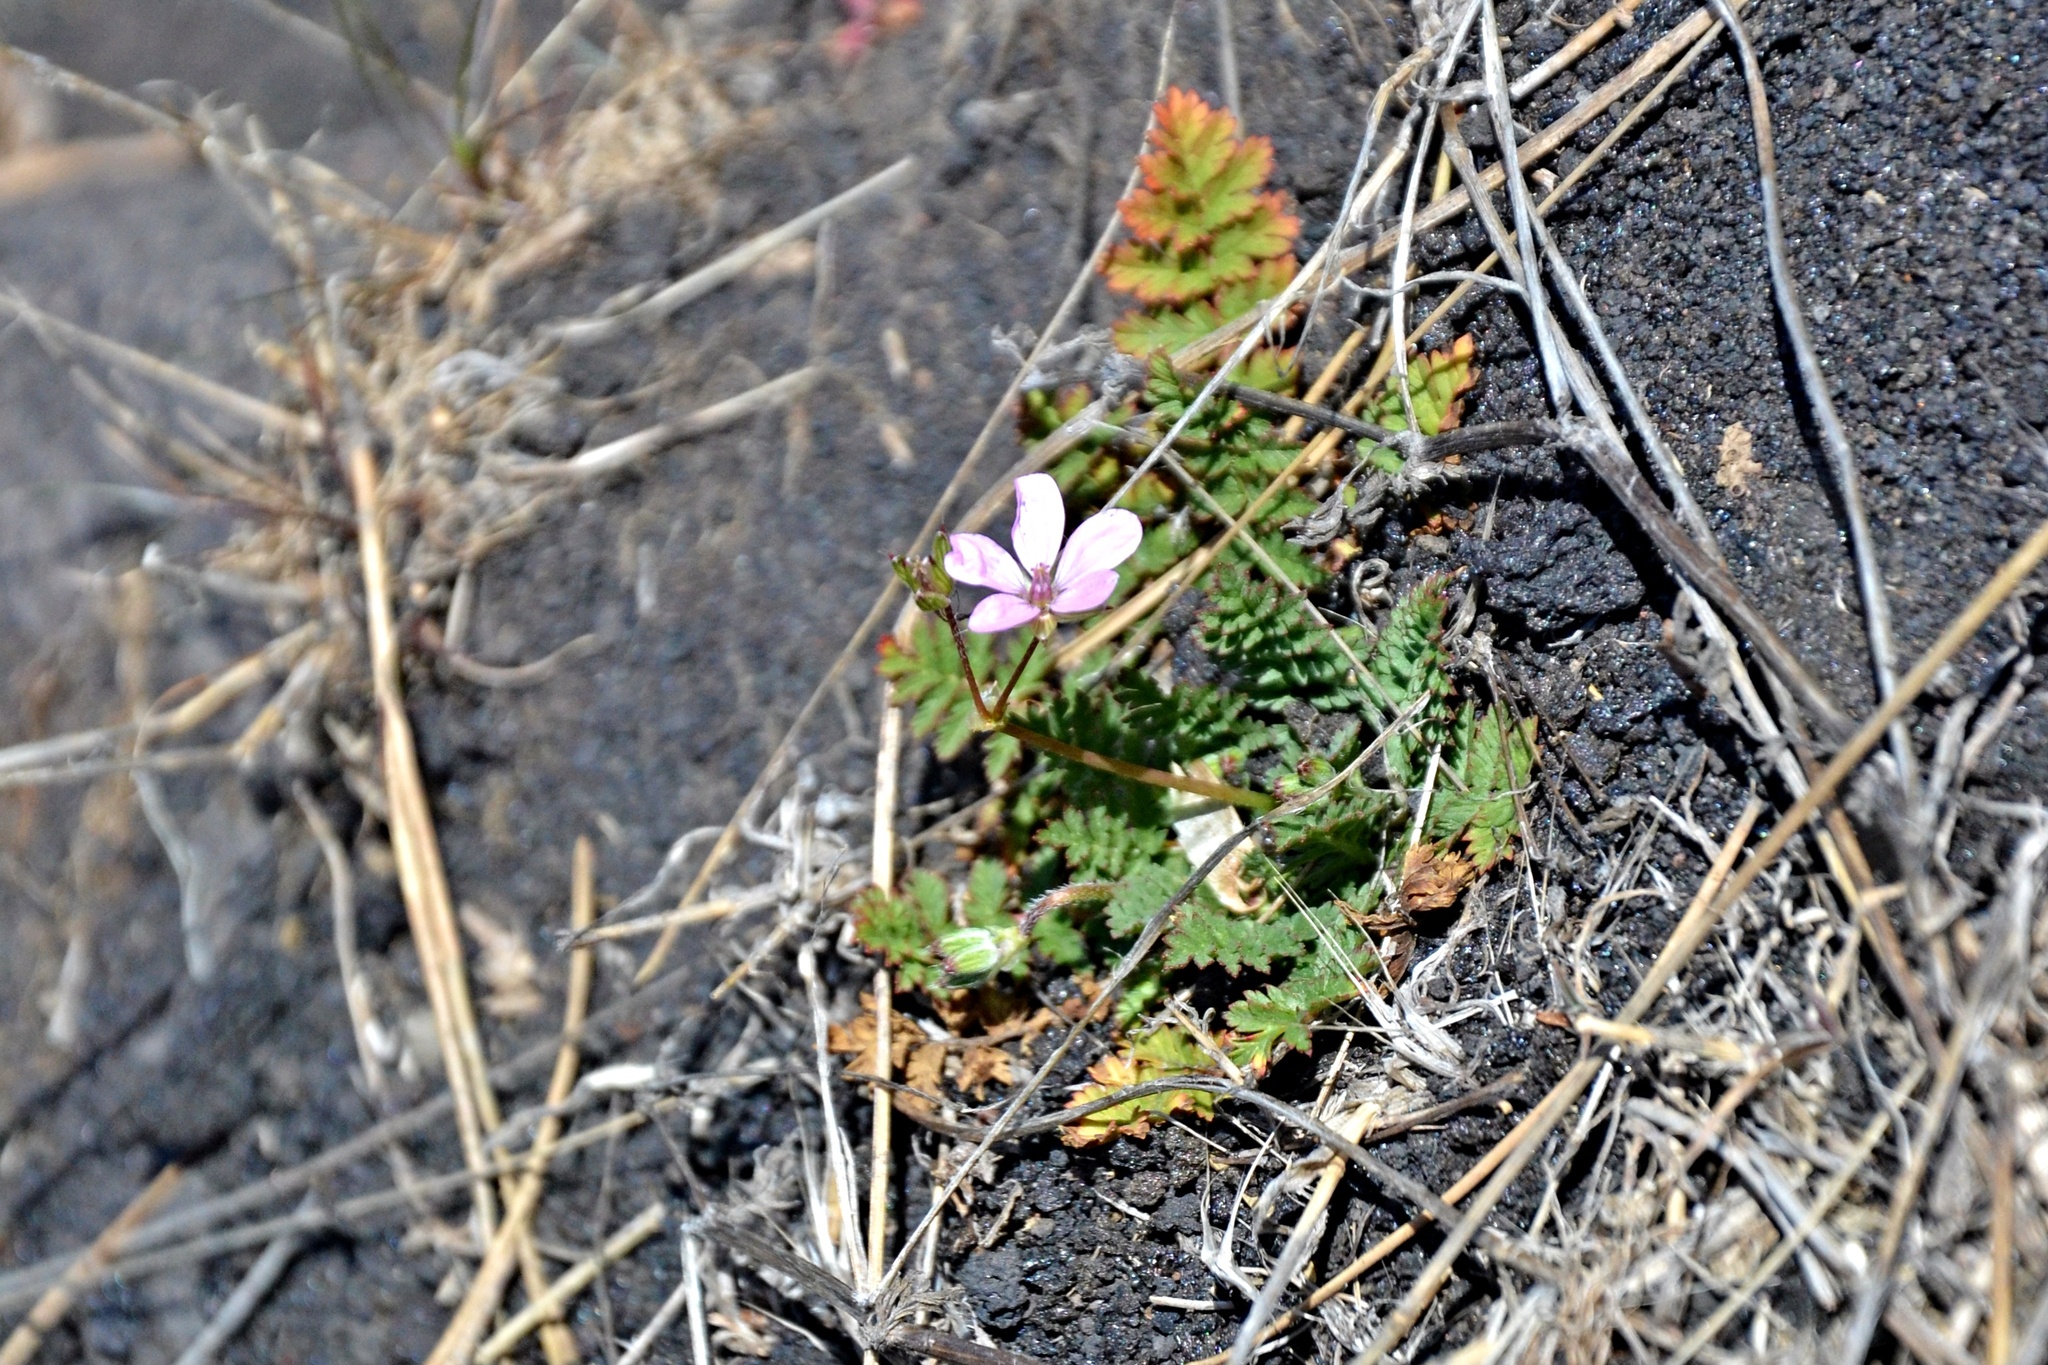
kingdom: Plantae
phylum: Tracheophyta
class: Magnoliopsida
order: Geraniales
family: Geraniaceae
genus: Erodium
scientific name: Erodium cicutarium
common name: Common stork's-bill
